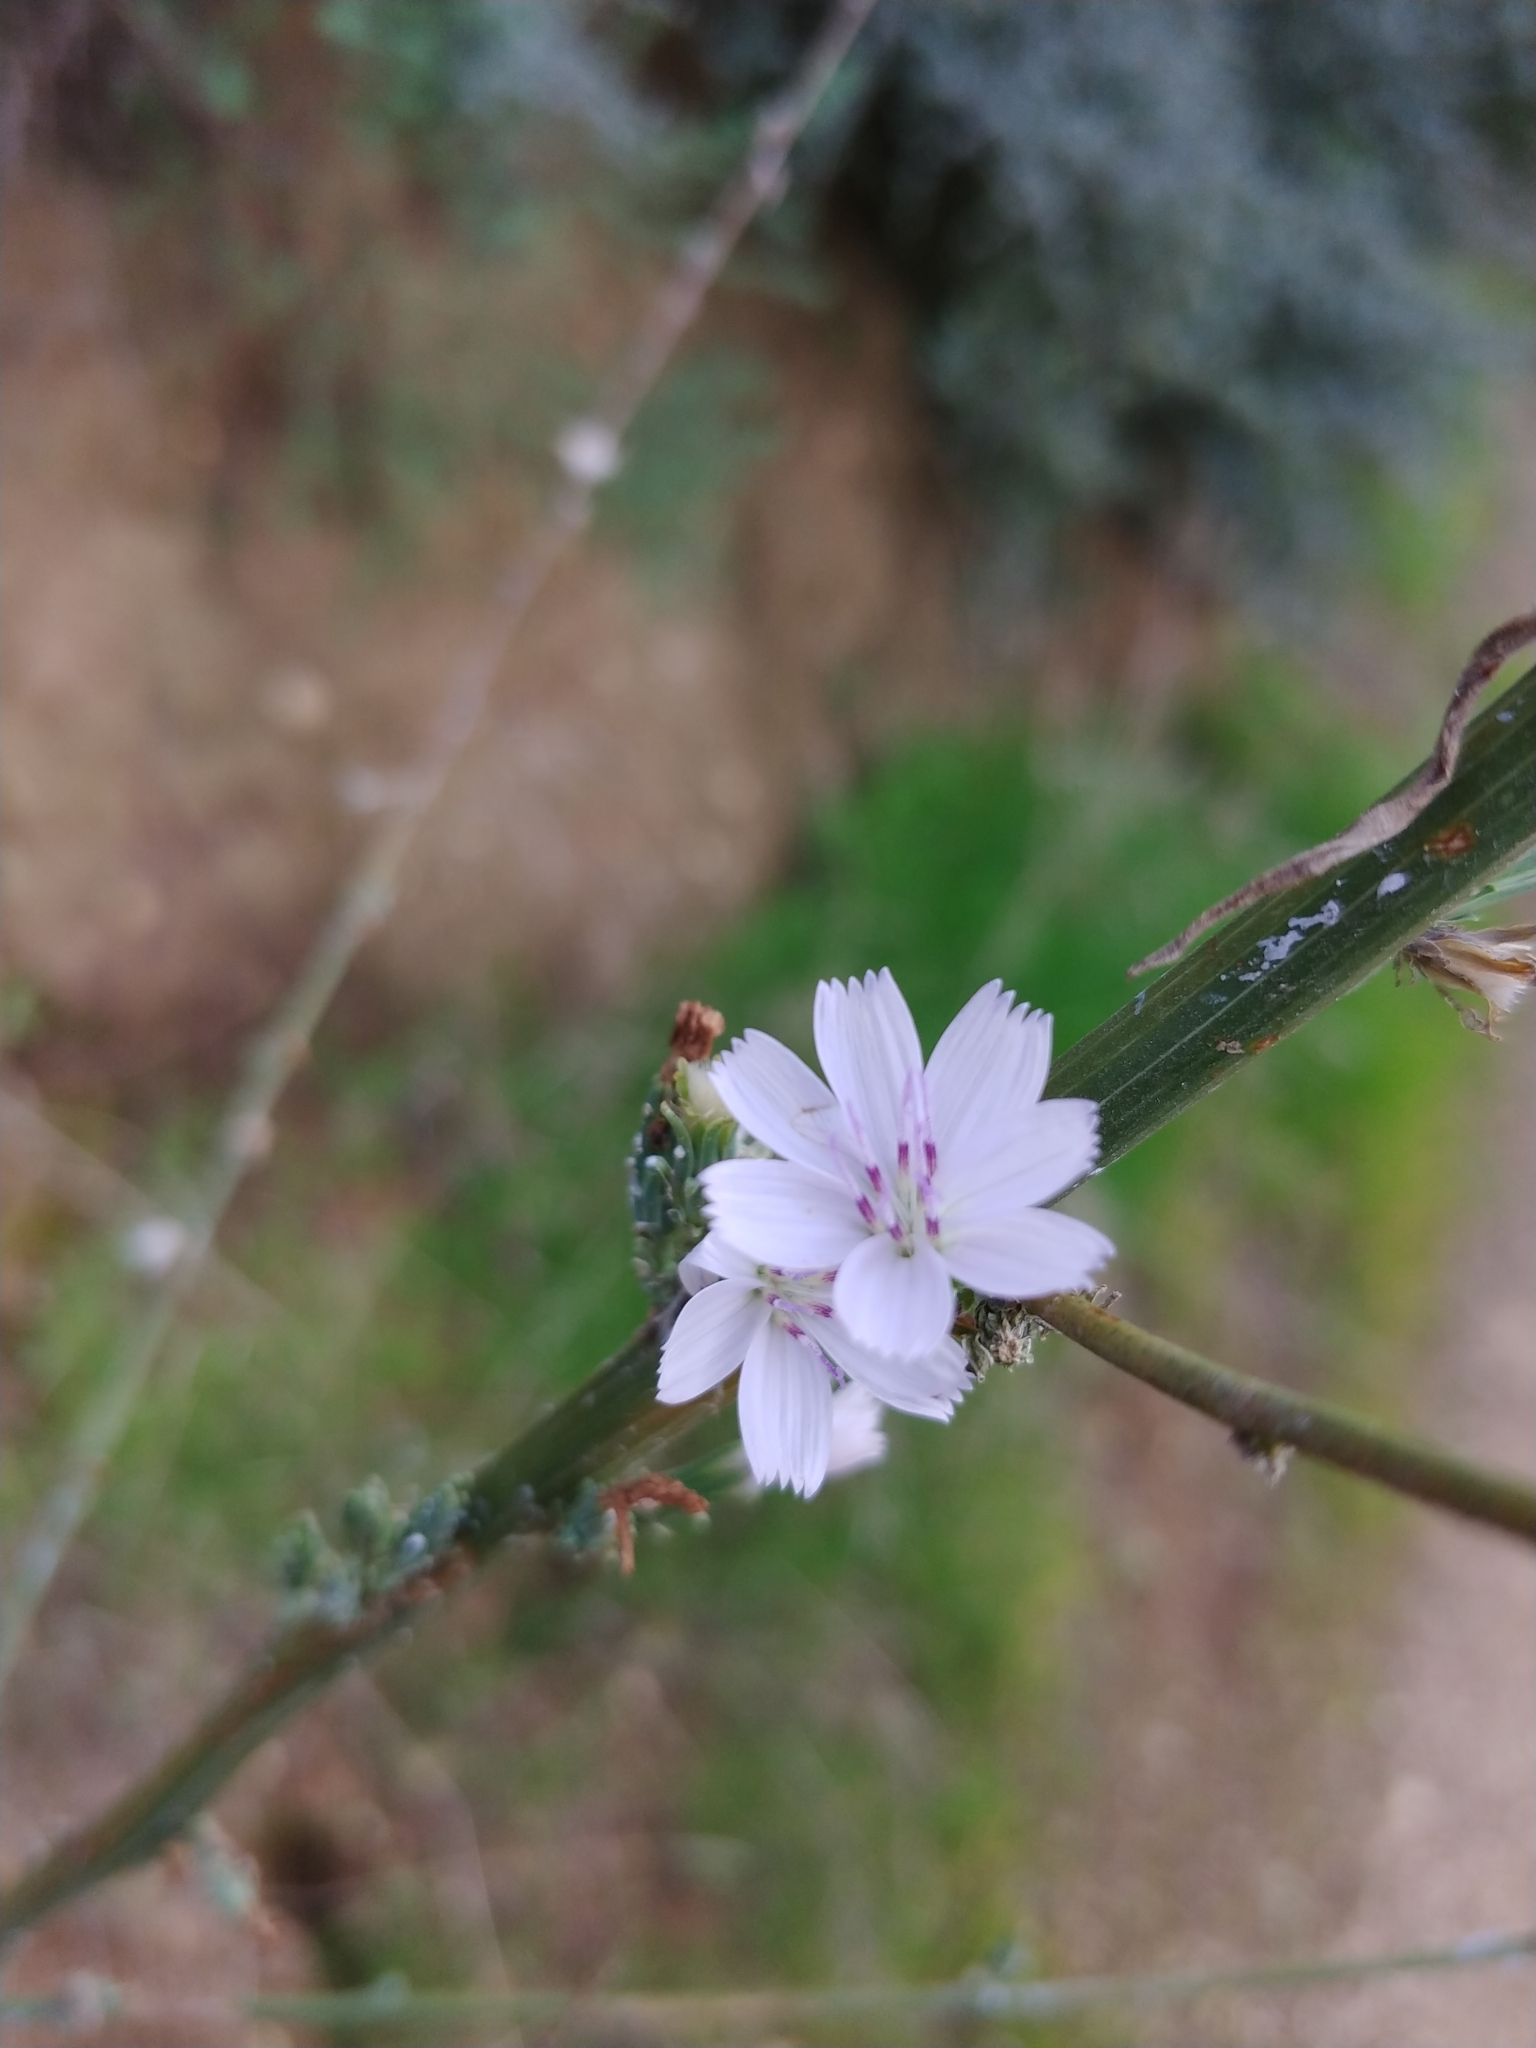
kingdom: Plantae
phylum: Tracheophyta
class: Magnoliopsida
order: Asterales
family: Asteraceae
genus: Stephanomeria
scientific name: Stephanomeria virgata
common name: Virgate wirelettuce
